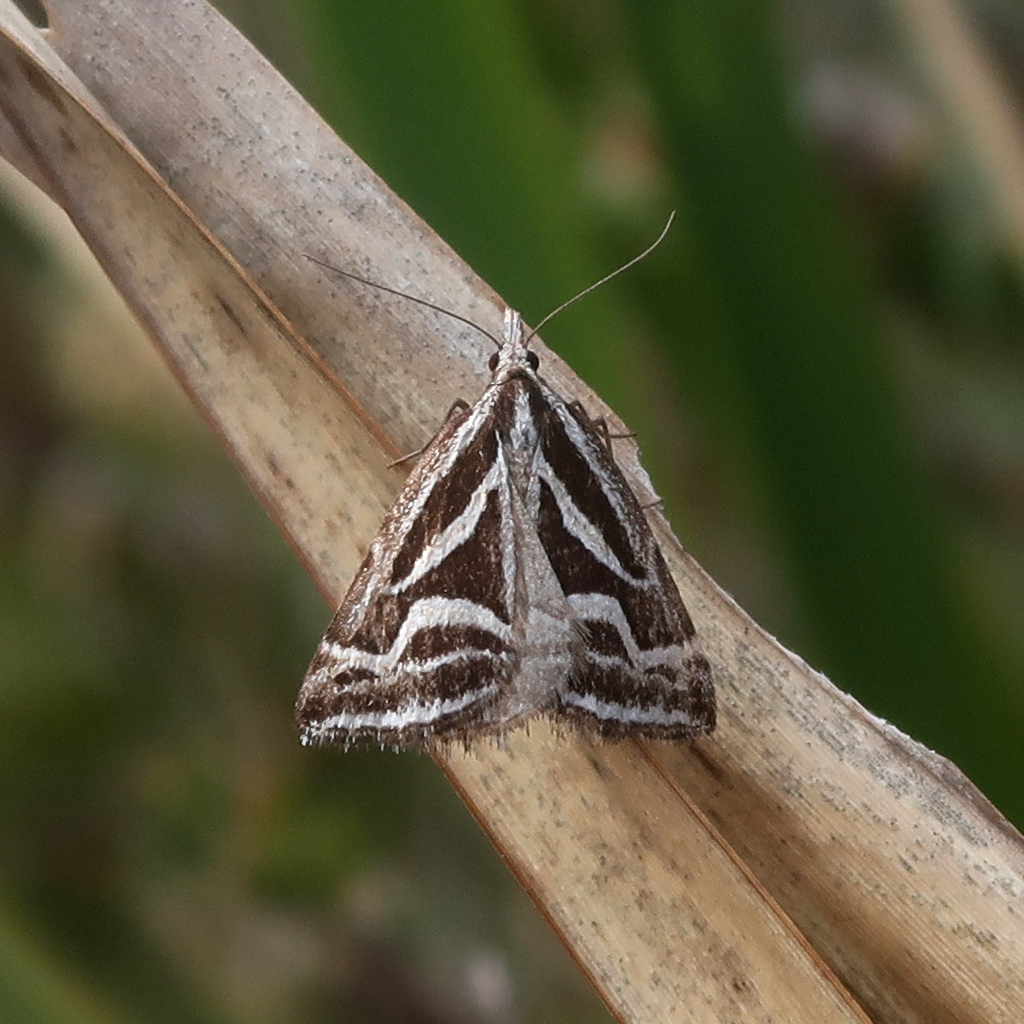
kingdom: Animalia
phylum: Arthropoda
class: Insecta
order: Lepidoptera
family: Geometridae
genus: Dichromodes
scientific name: Dichromodes confluaria
